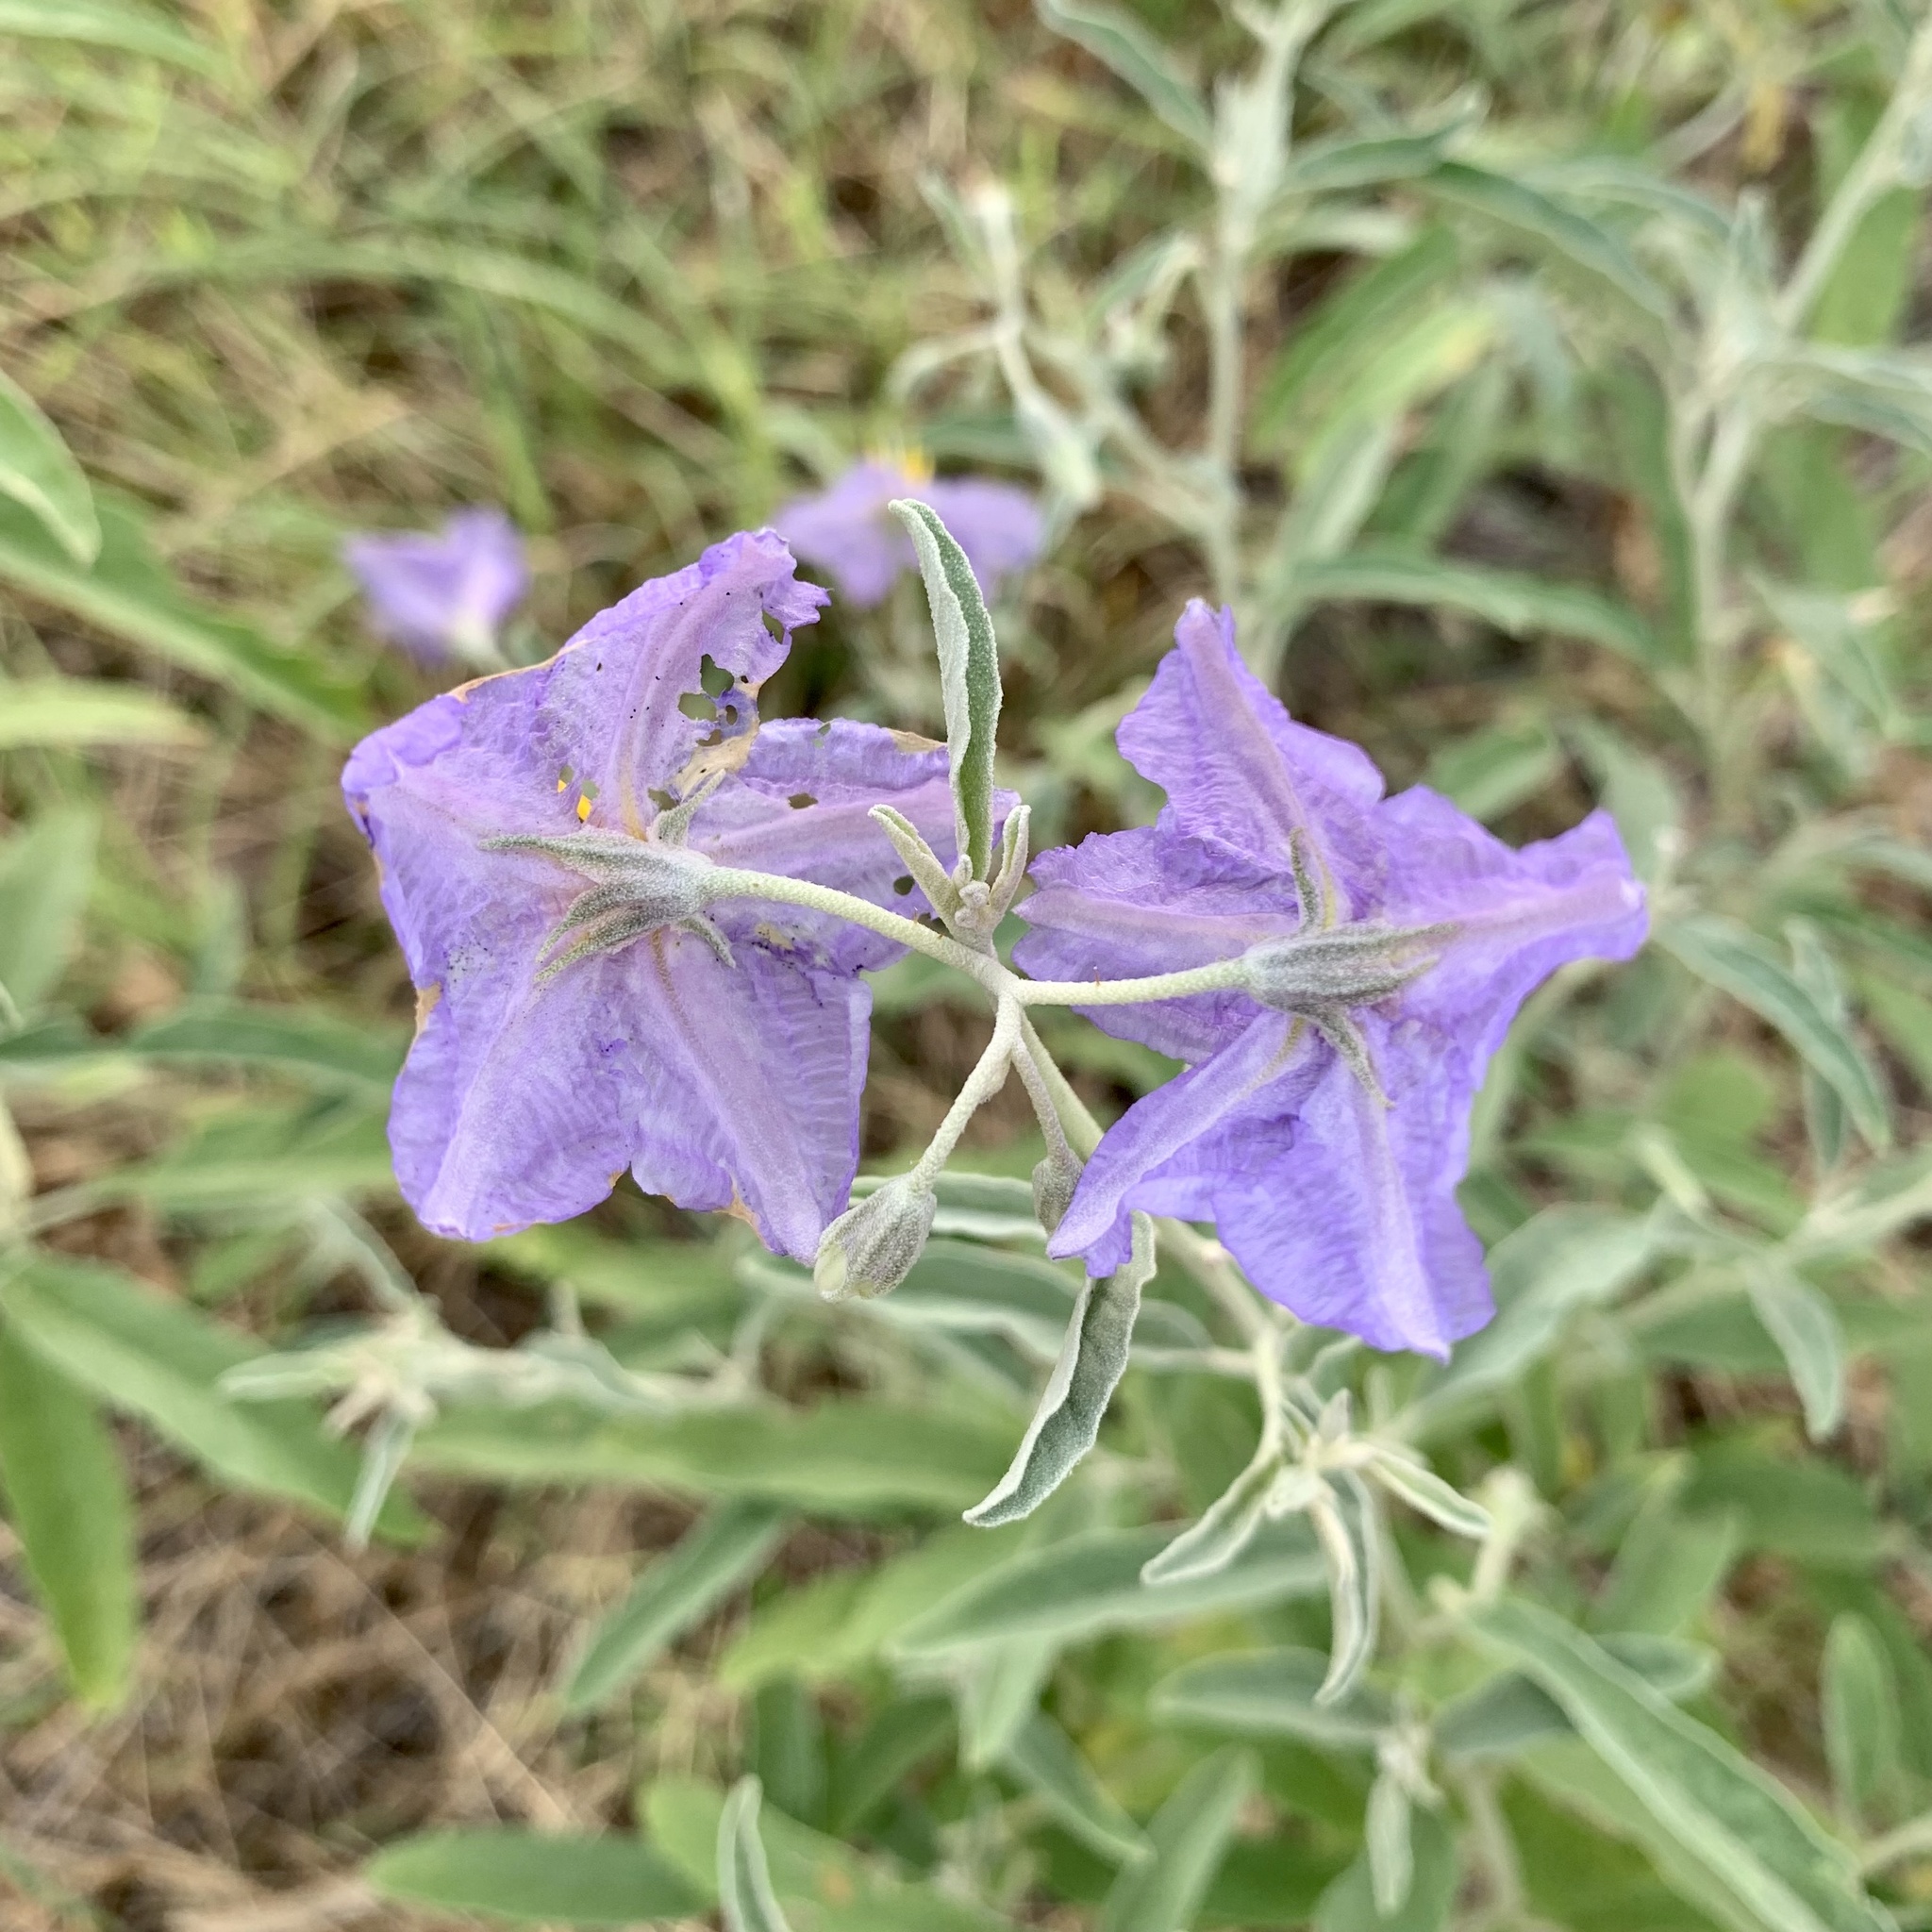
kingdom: Plantae
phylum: Tracheophyta
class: Magnoliopsida
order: Solanales
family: Solanaceae
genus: Solanum
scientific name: Solanum elaeagnifolium
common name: Silverleaf nightshade
